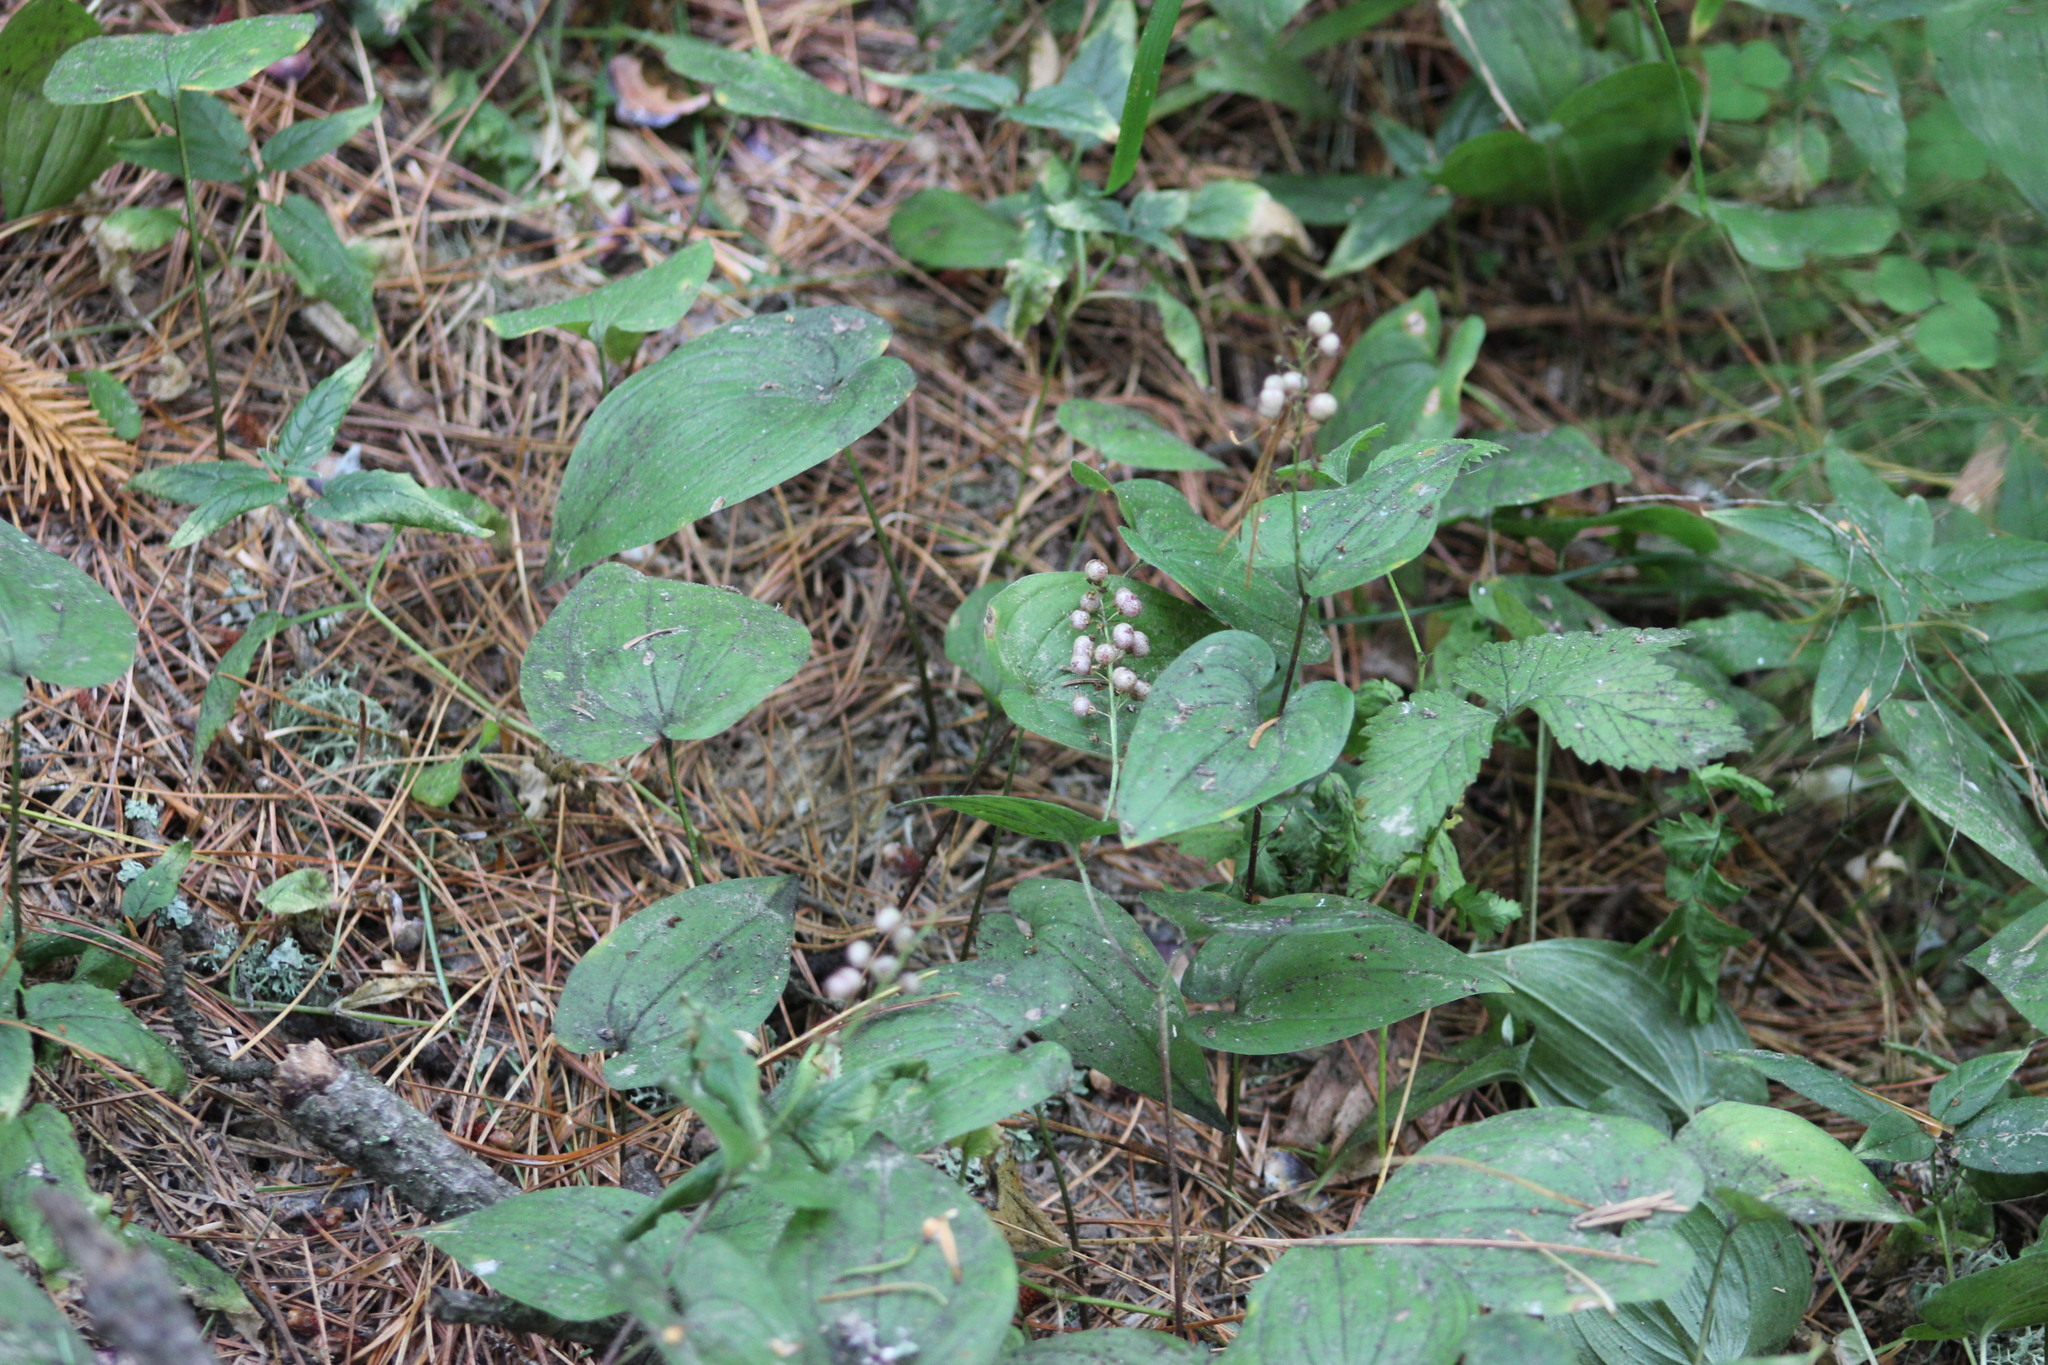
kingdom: Plantae
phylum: Tracheophyta
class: Liliopsida
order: Asparagales
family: Asparagaceae
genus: Maianthemum
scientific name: Maianthemum bifolium
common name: May lily
